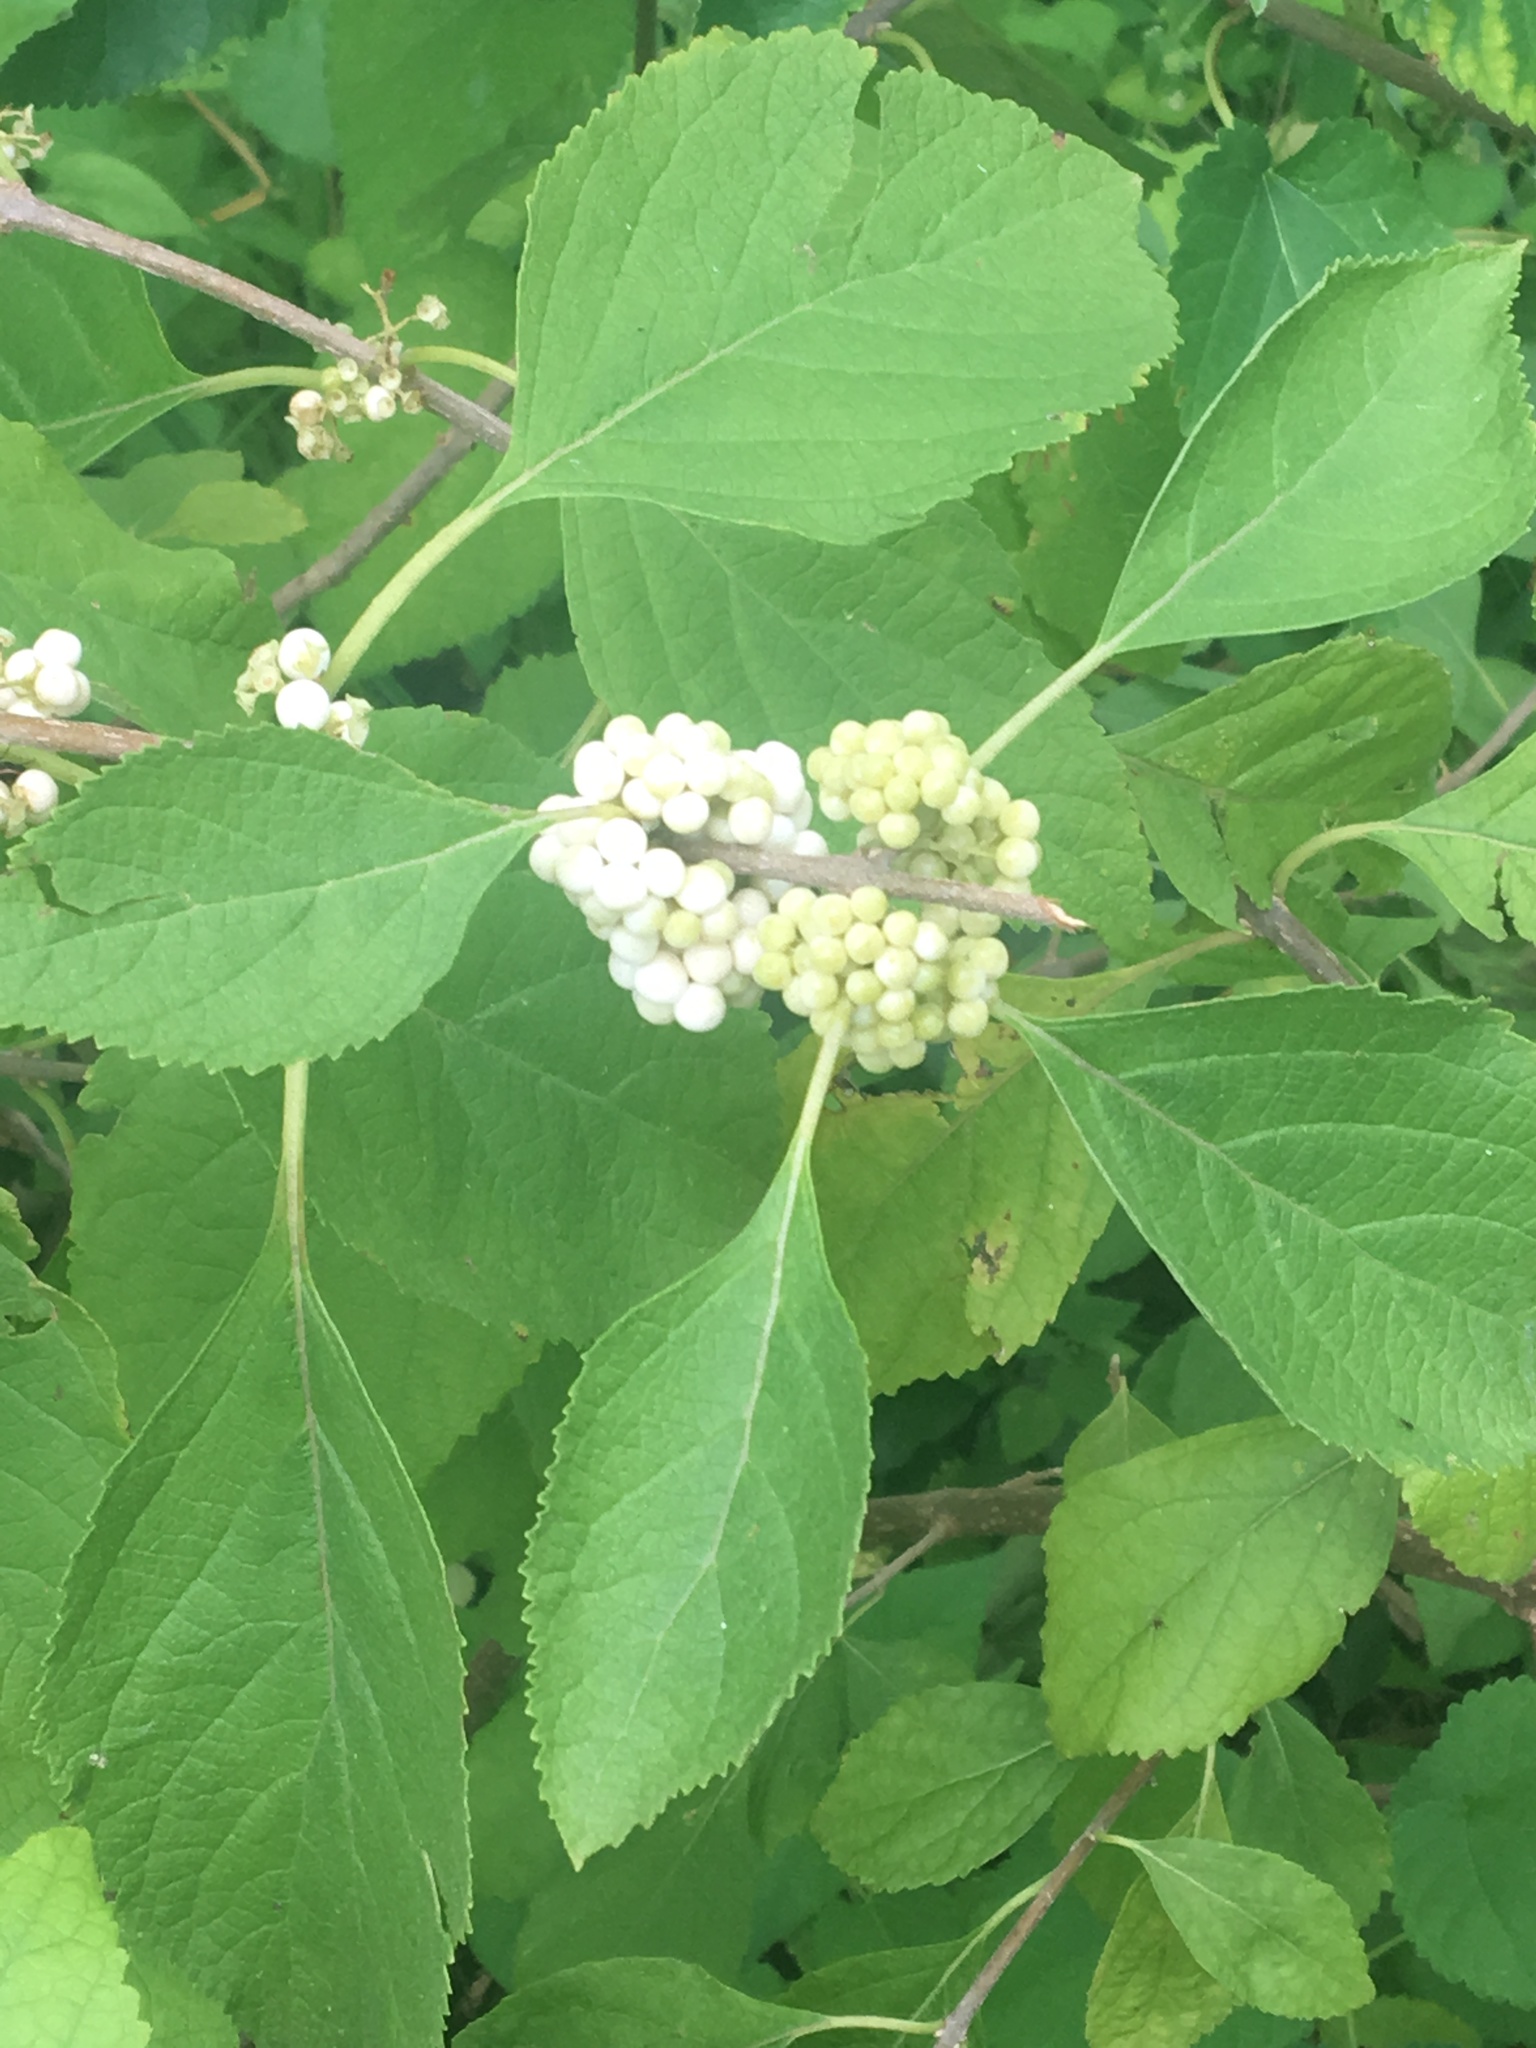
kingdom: Plantae
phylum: Tracheophyta
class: Magnoliopsida
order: Lamiales
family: Lamiaceae
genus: Callicarpa
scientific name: Callicarpa americana
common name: American beautyberry
